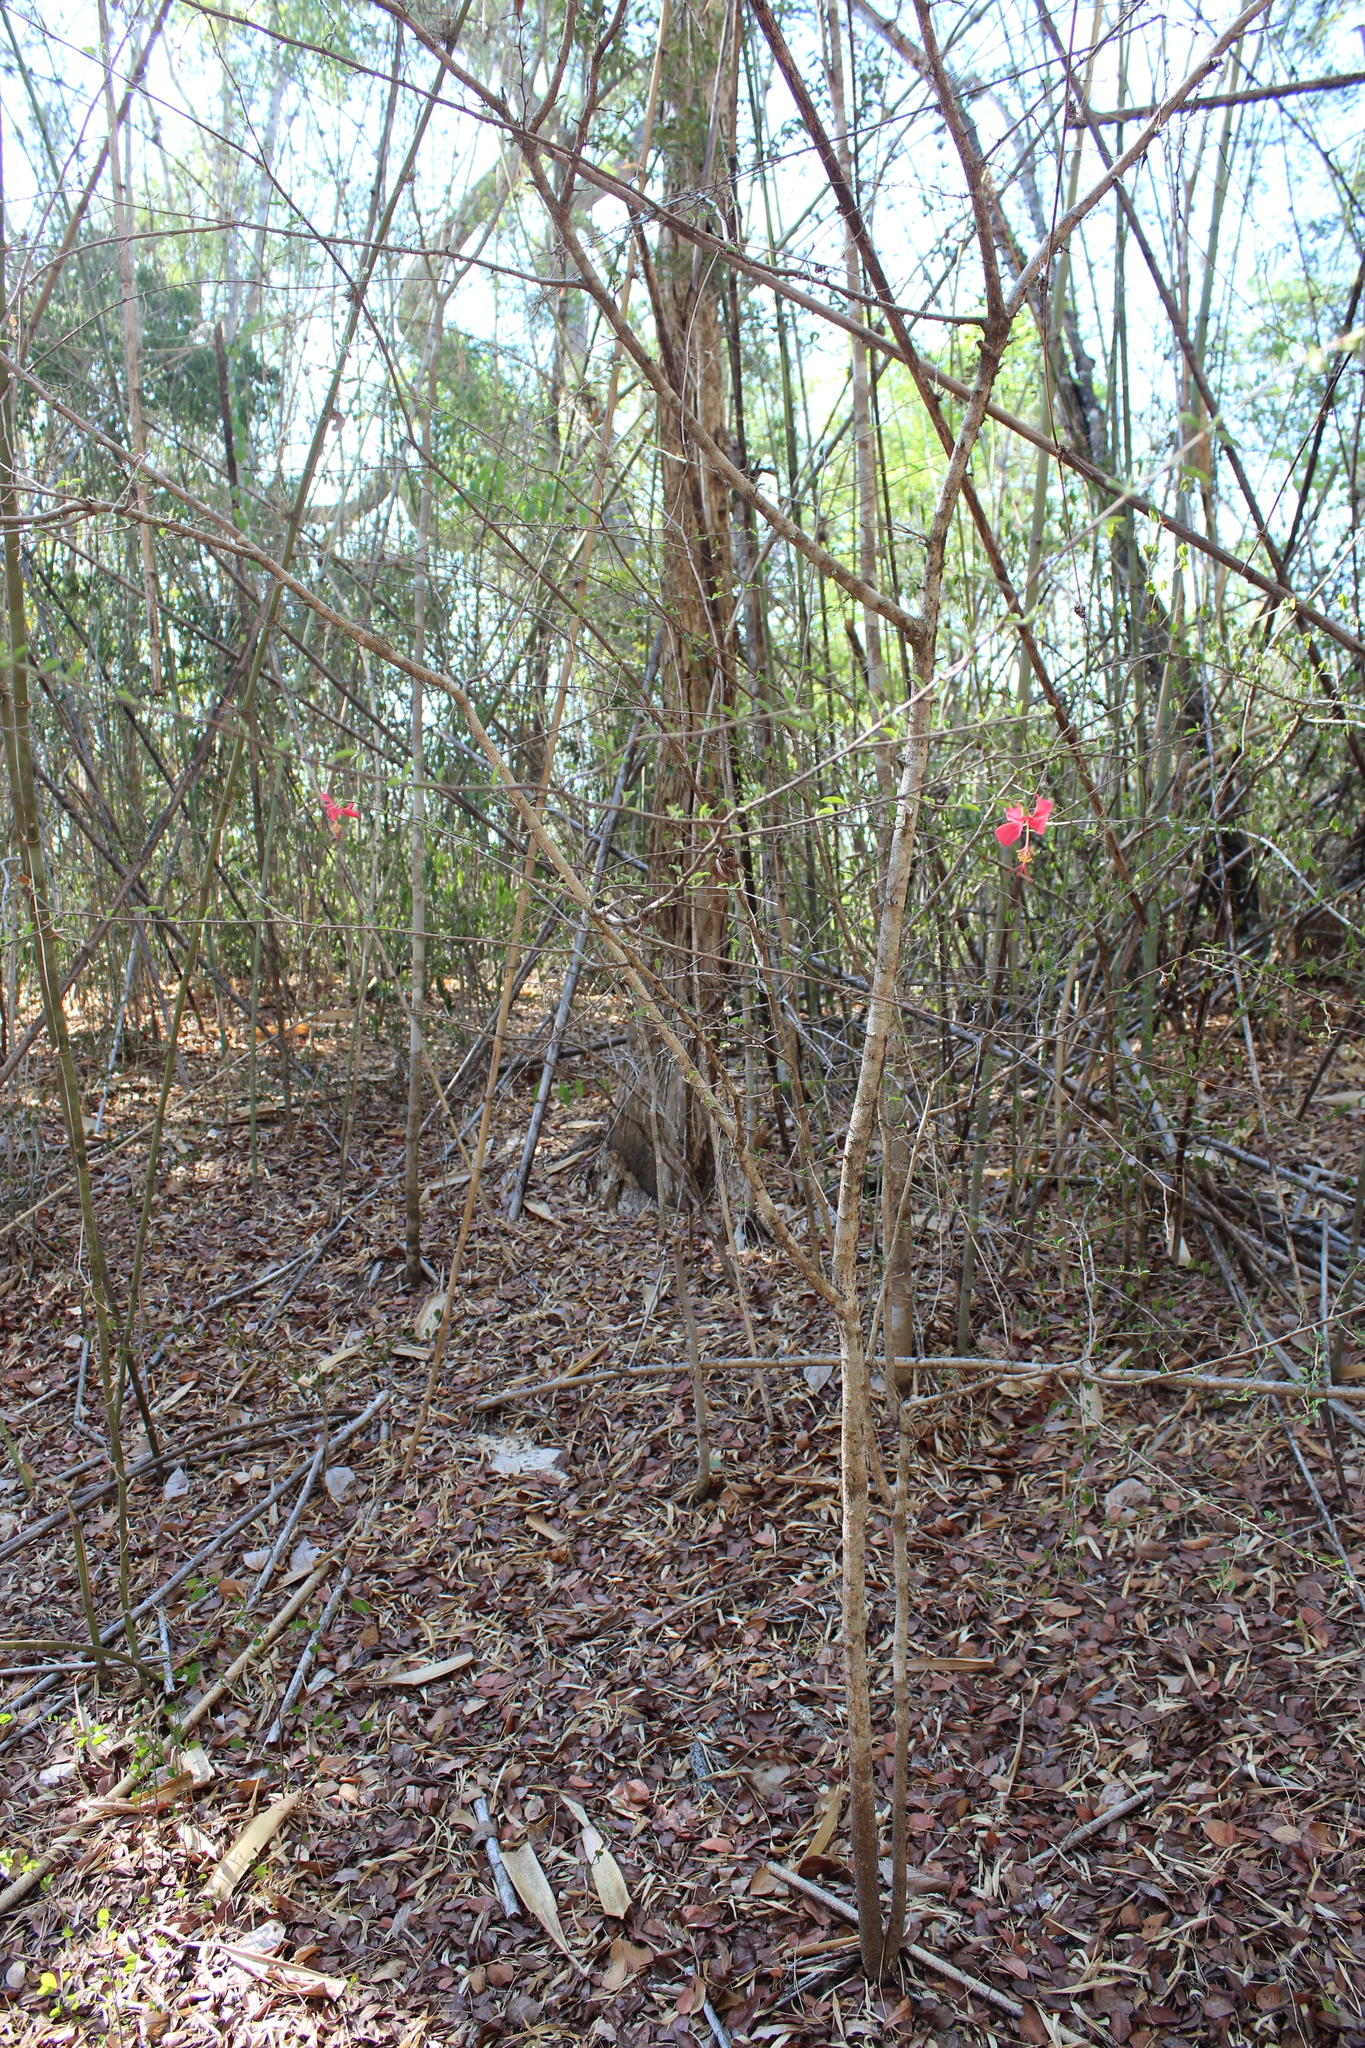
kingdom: Plantae
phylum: Tracheophyta
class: Magnoliopsida
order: Malvales
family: Malvaceae
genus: Hibiscus
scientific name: Hibiscus grandidieri
